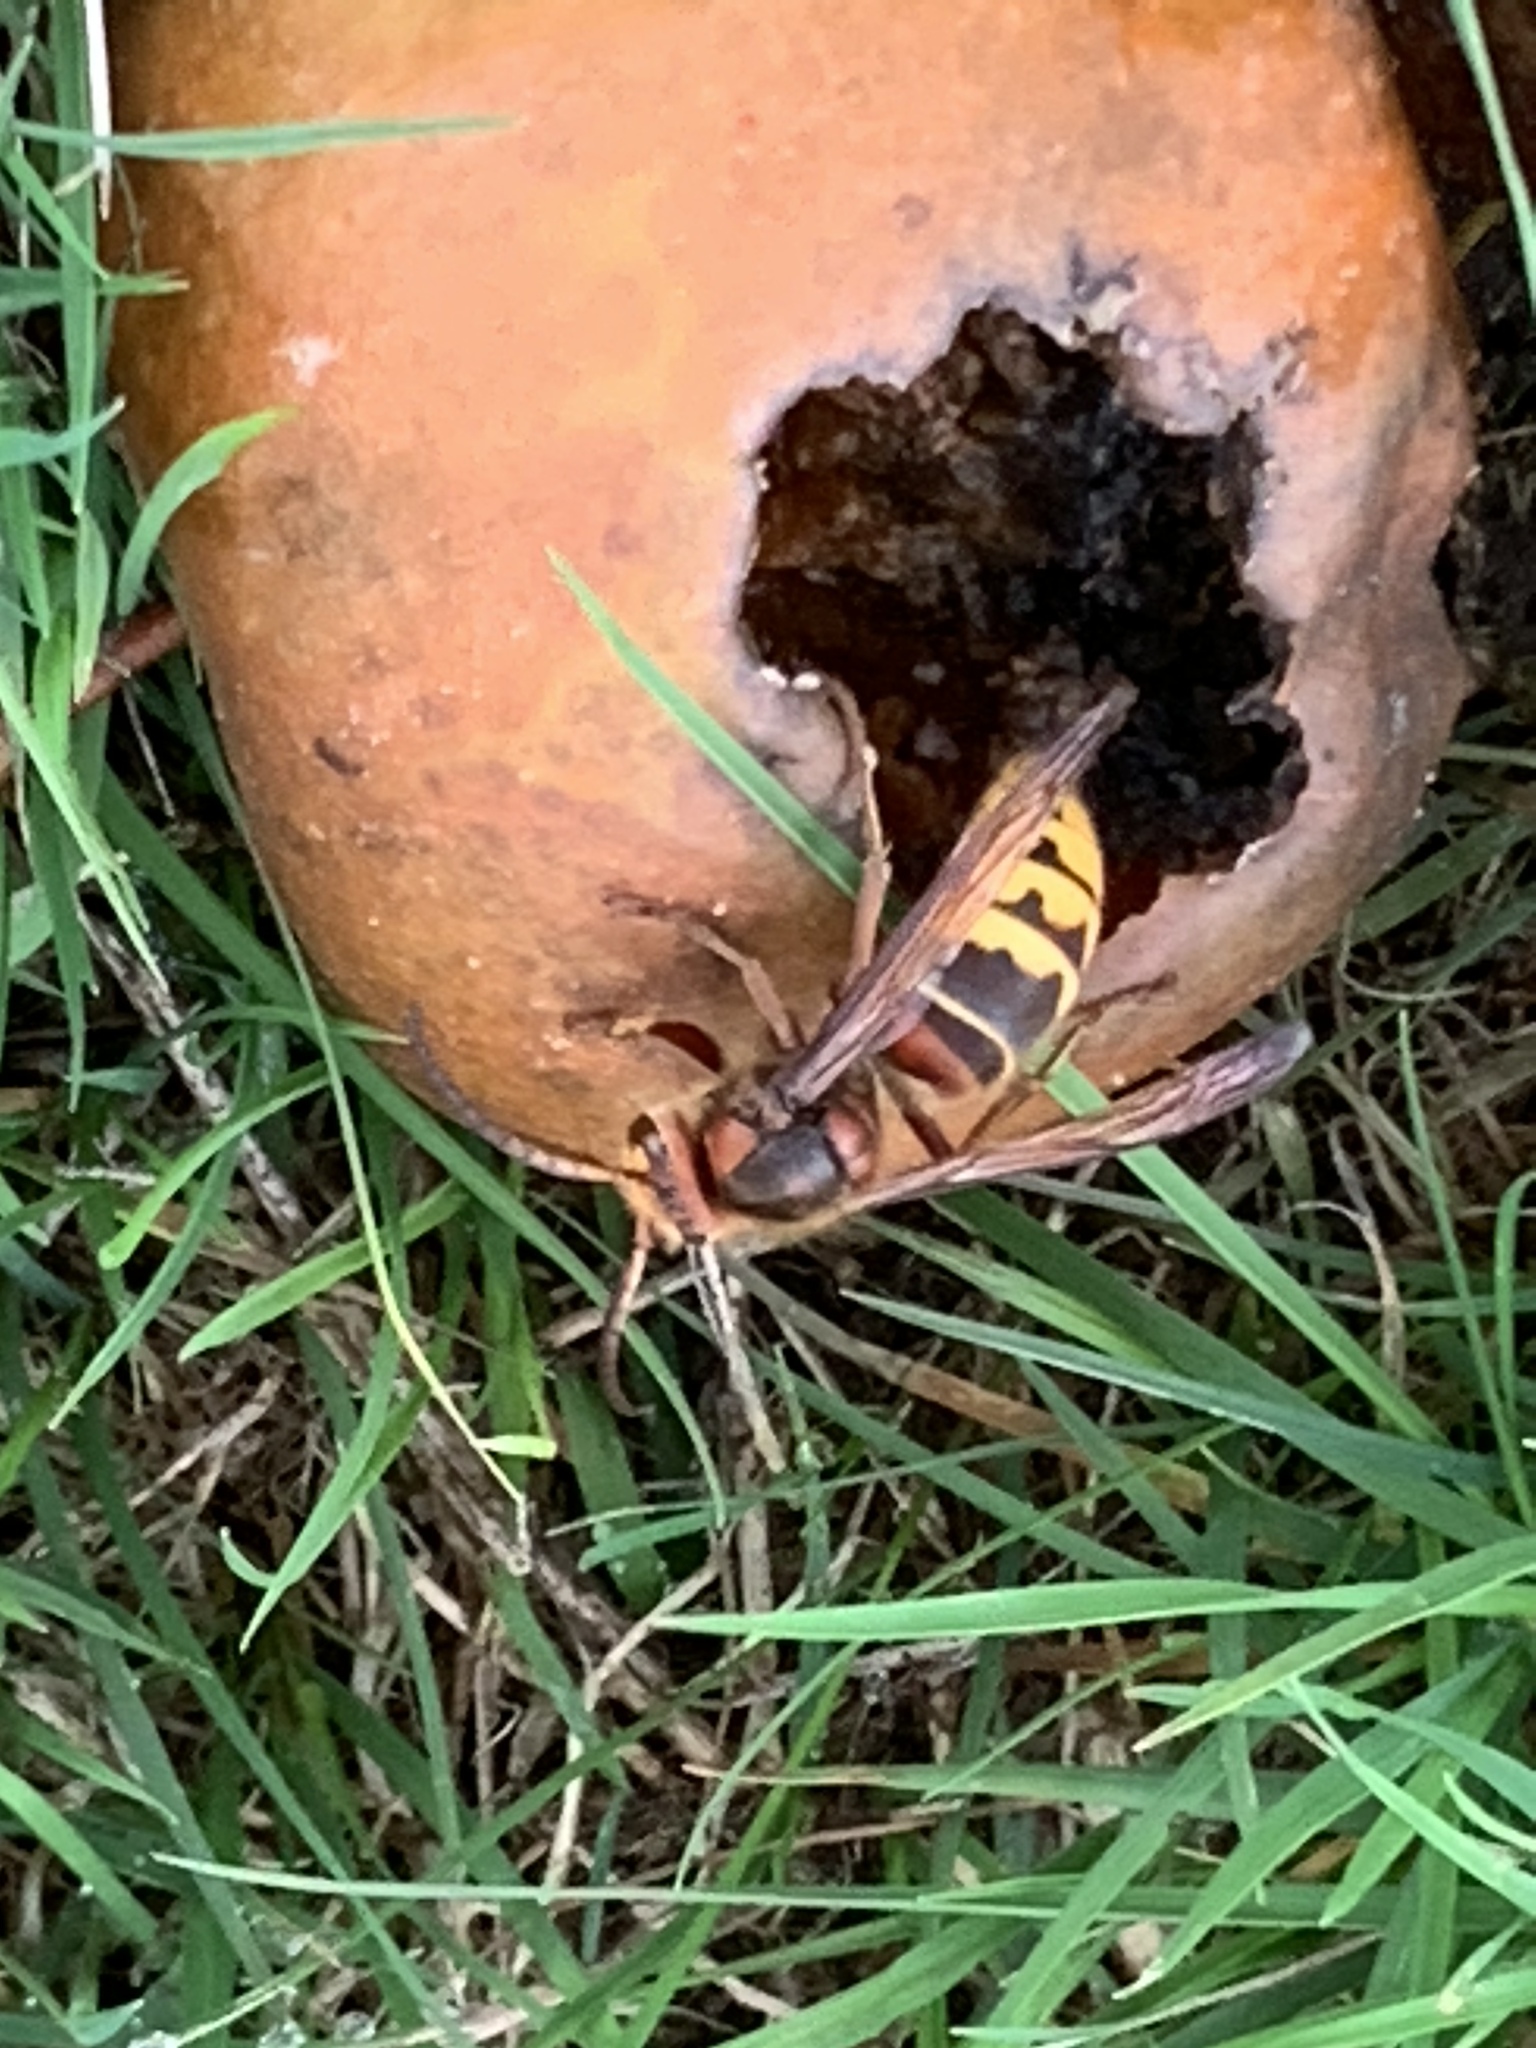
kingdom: Animalia
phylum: Arthropoda
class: Insecta
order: Hymenoptera
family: Vespidae
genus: Vespa
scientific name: Vespa crabro
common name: Hornet
